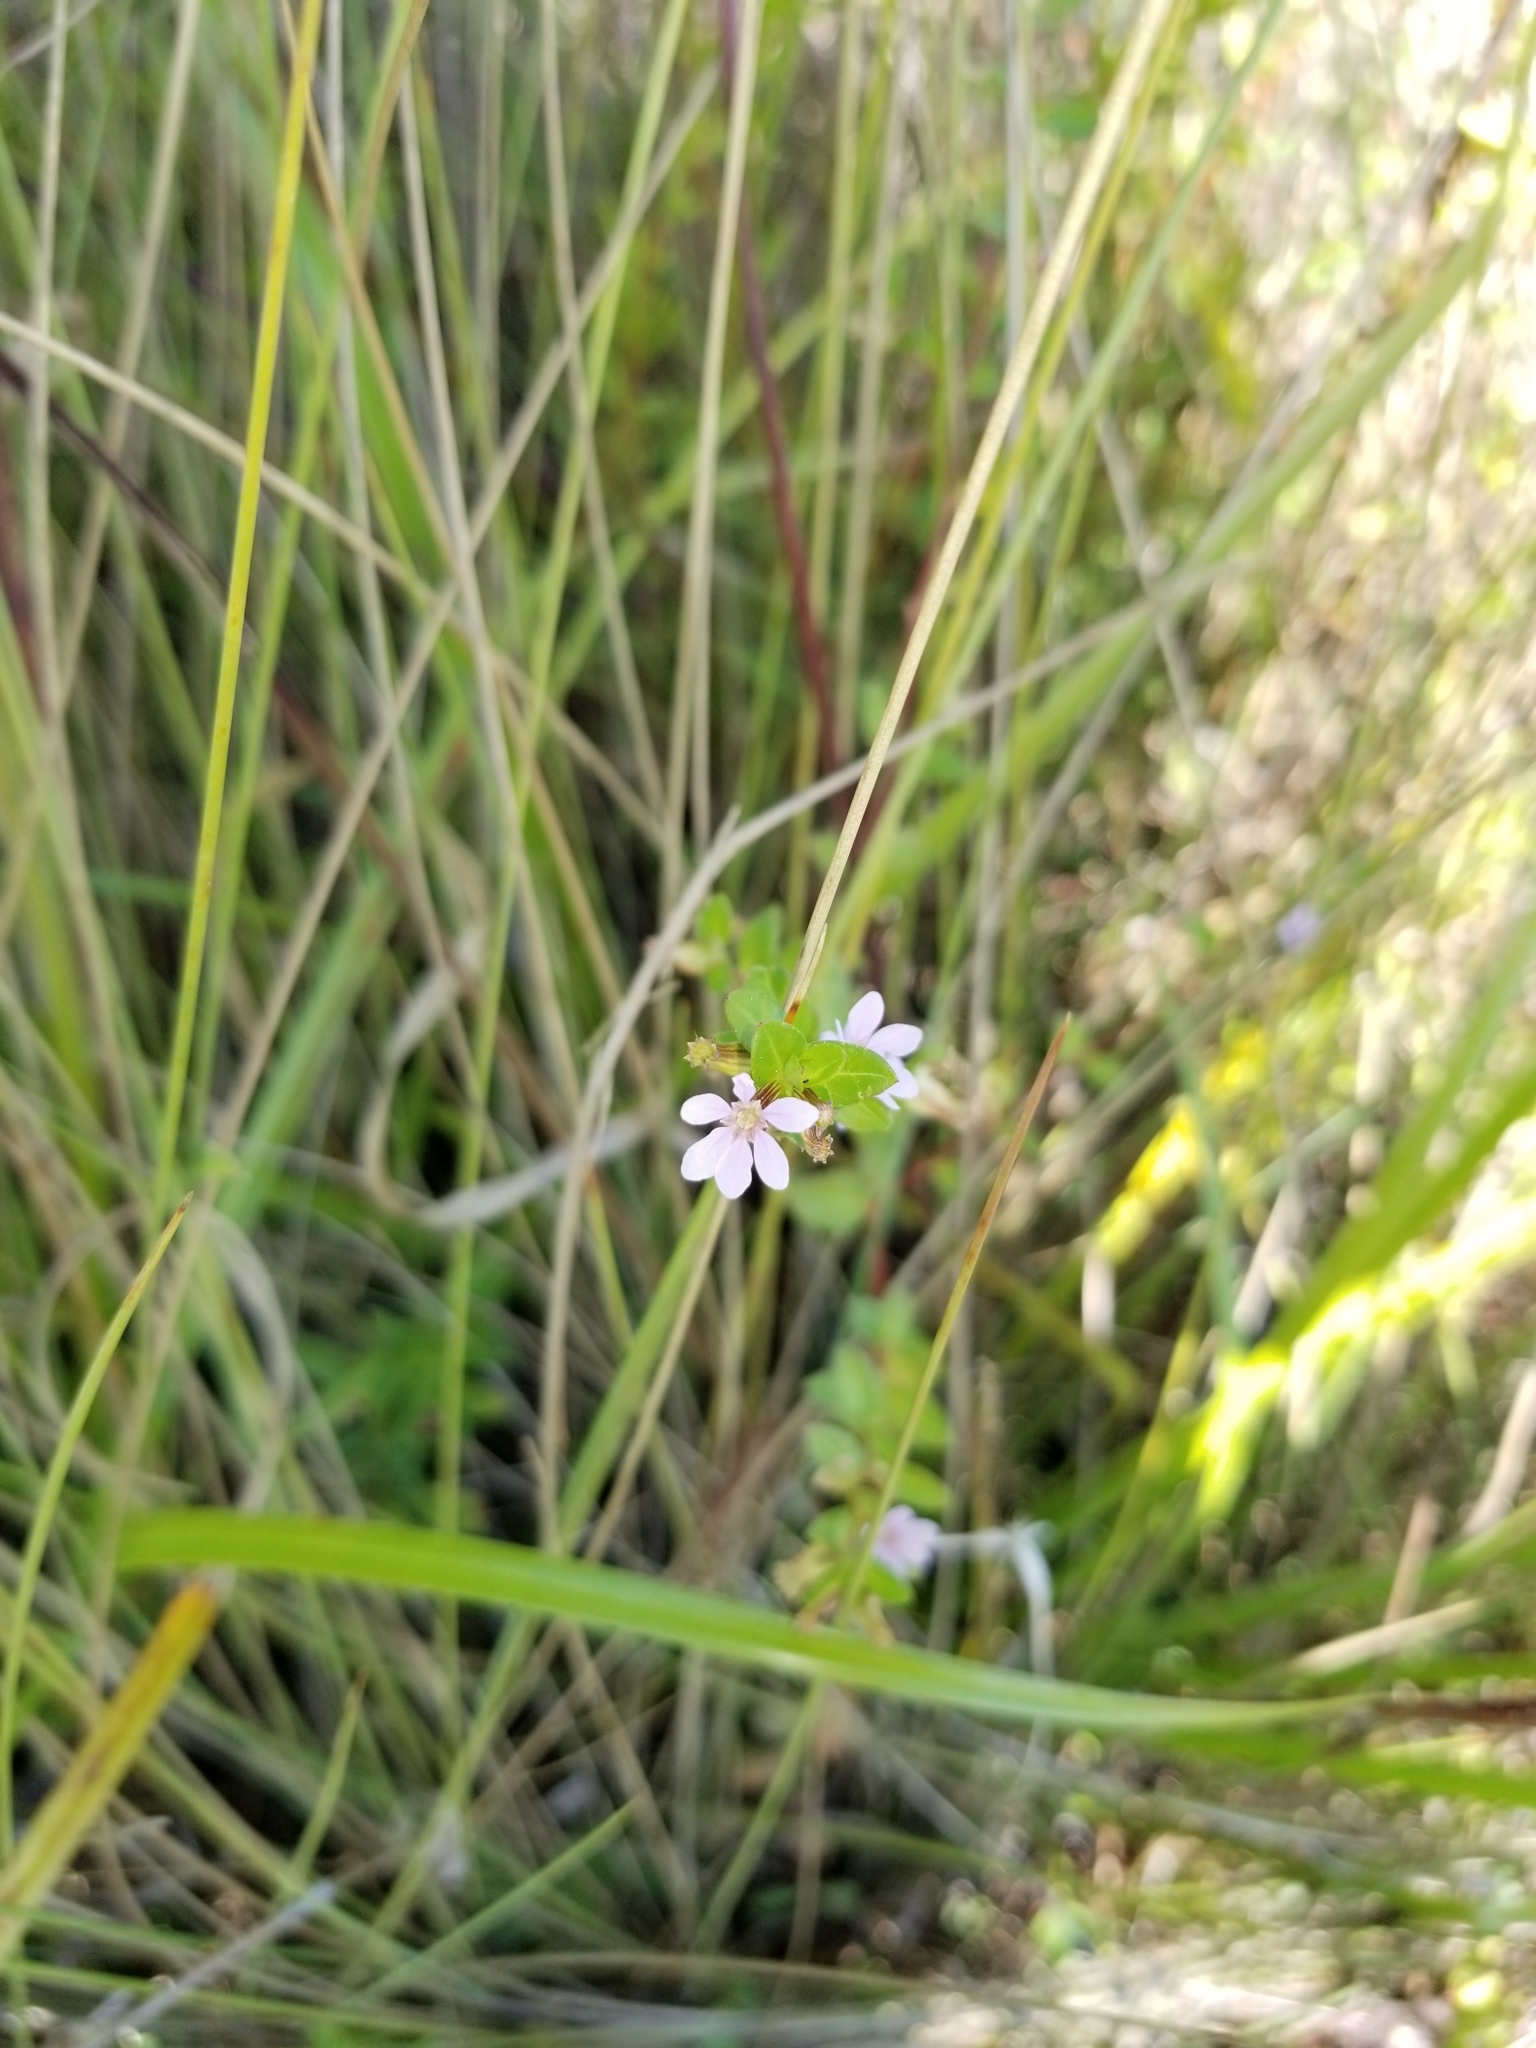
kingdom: Plantae
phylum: Tracheophyta
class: Magnoliopsida
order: Myrtales
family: Lythraceae
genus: Cuphea
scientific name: Cuphea strigulosa
